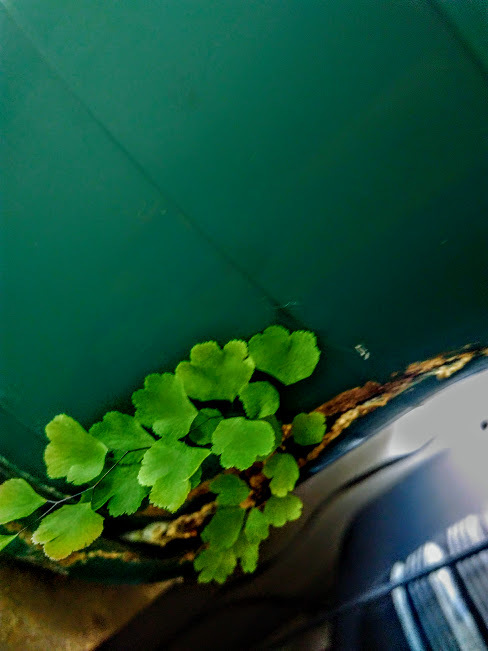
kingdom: Plantae
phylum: Tracheophyta
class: Polypodiopsida
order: Polypodiales
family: Pteridaceae
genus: Adiantum
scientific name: Adiantum raddianum
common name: Delta maidenhair fern
